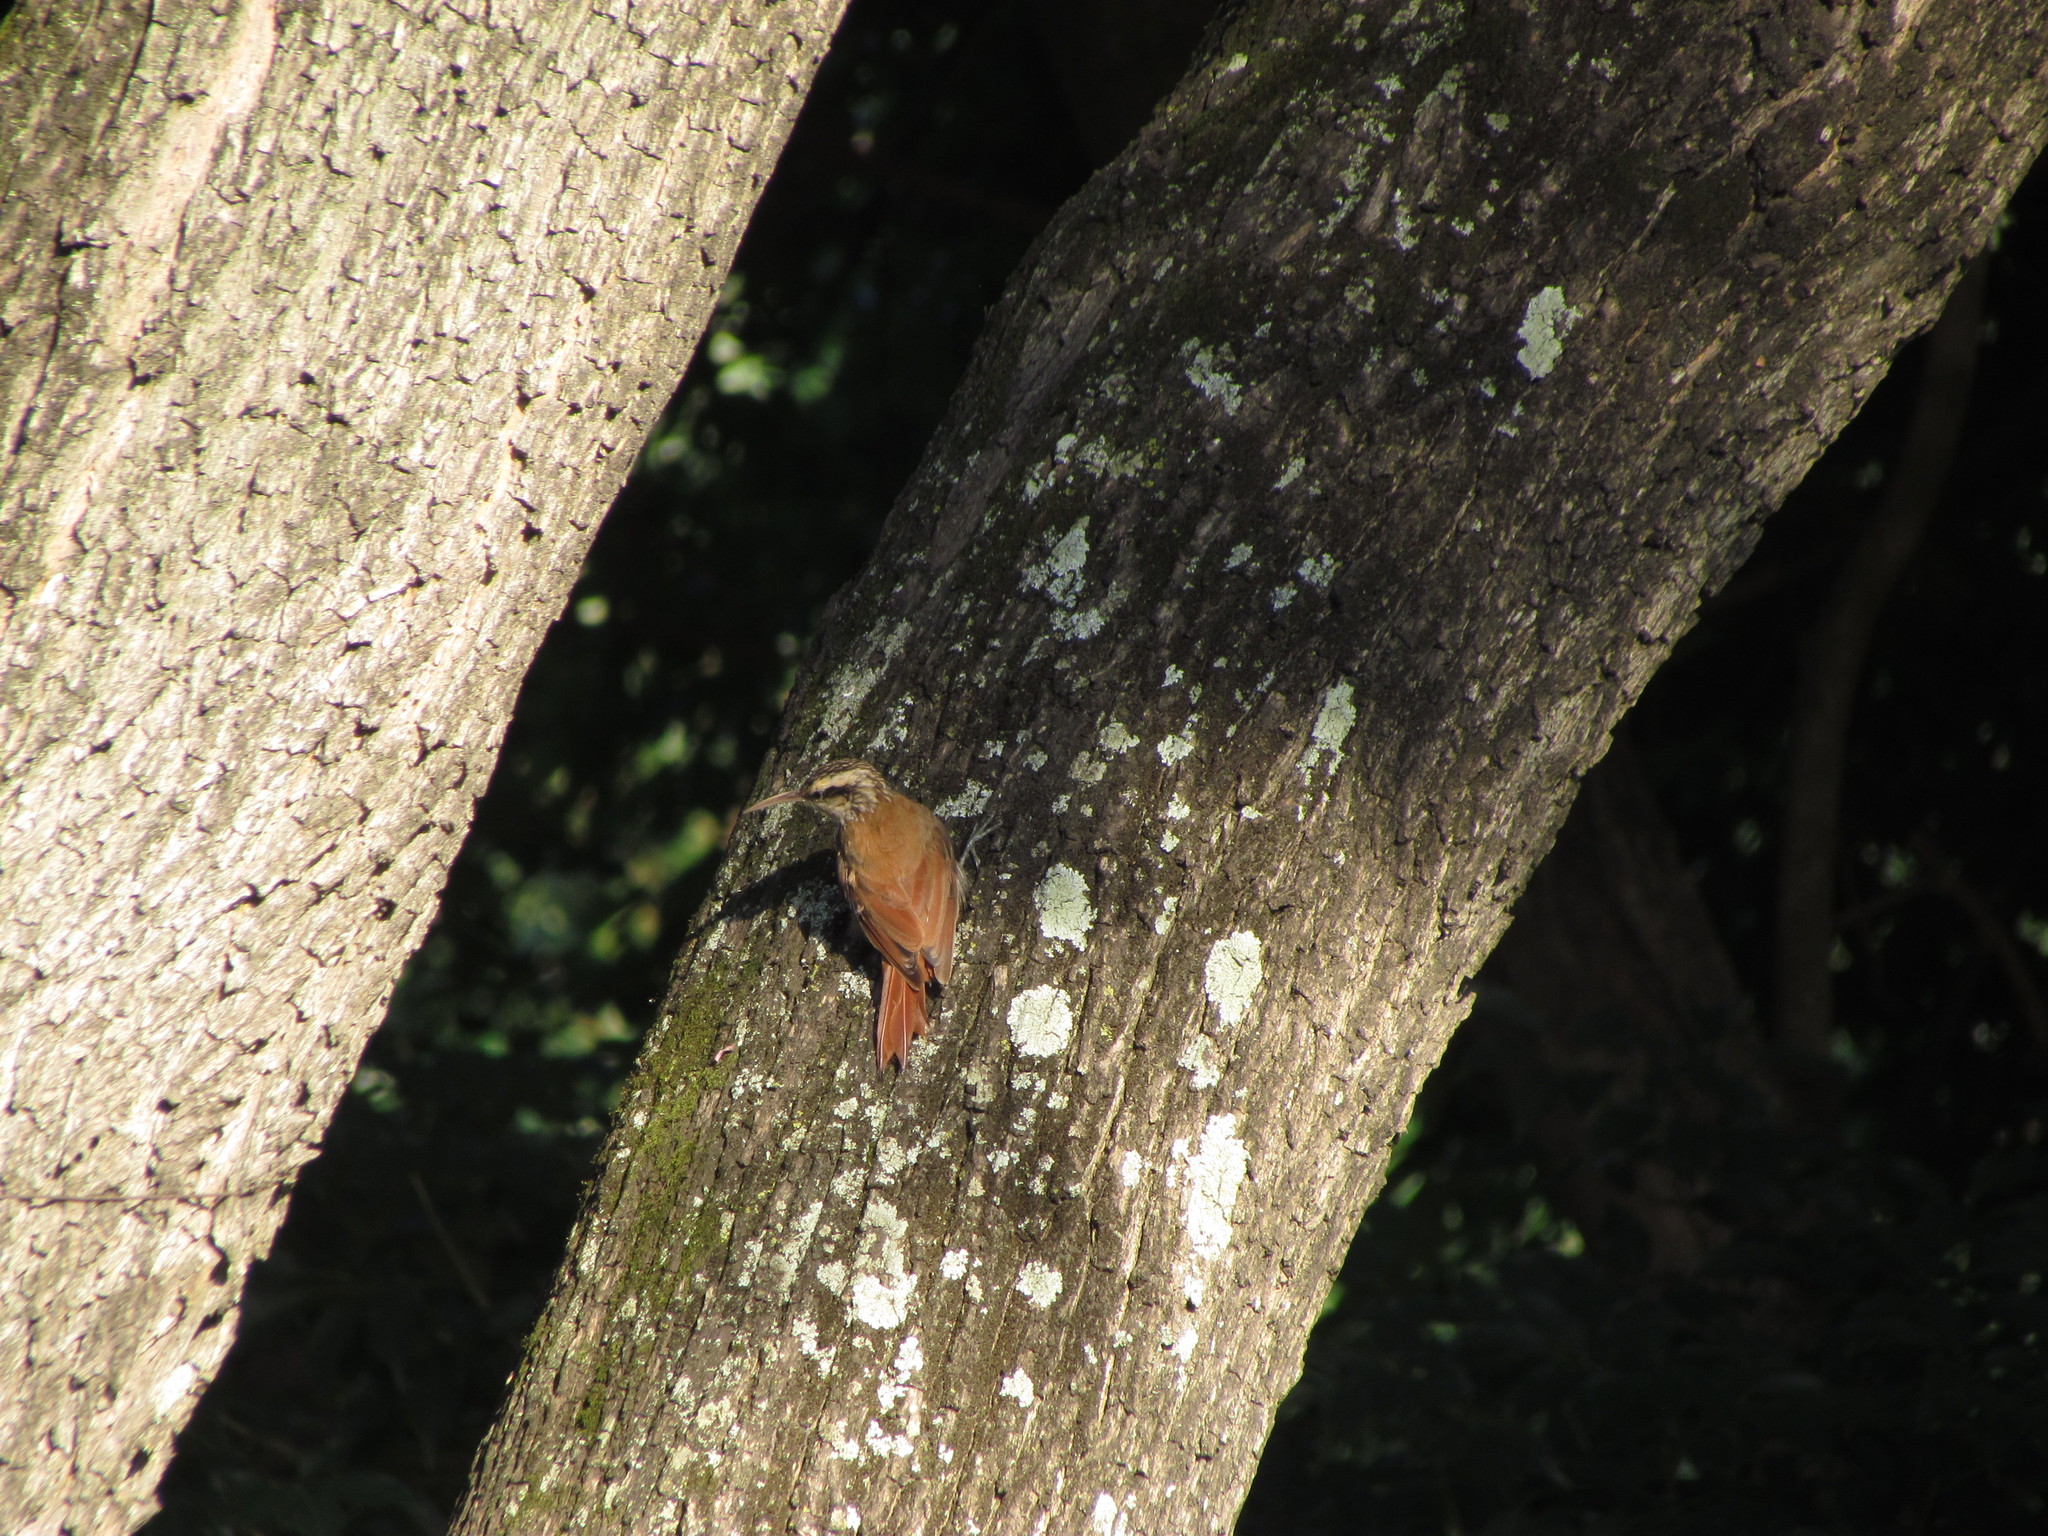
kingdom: Animalia
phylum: Chordata
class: Aves
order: Passeriformes
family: Furnariidae
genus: Lepidocolaptes
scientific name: Lepidocolaptes angustirostris
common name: Narrow-billed woodcreeper
